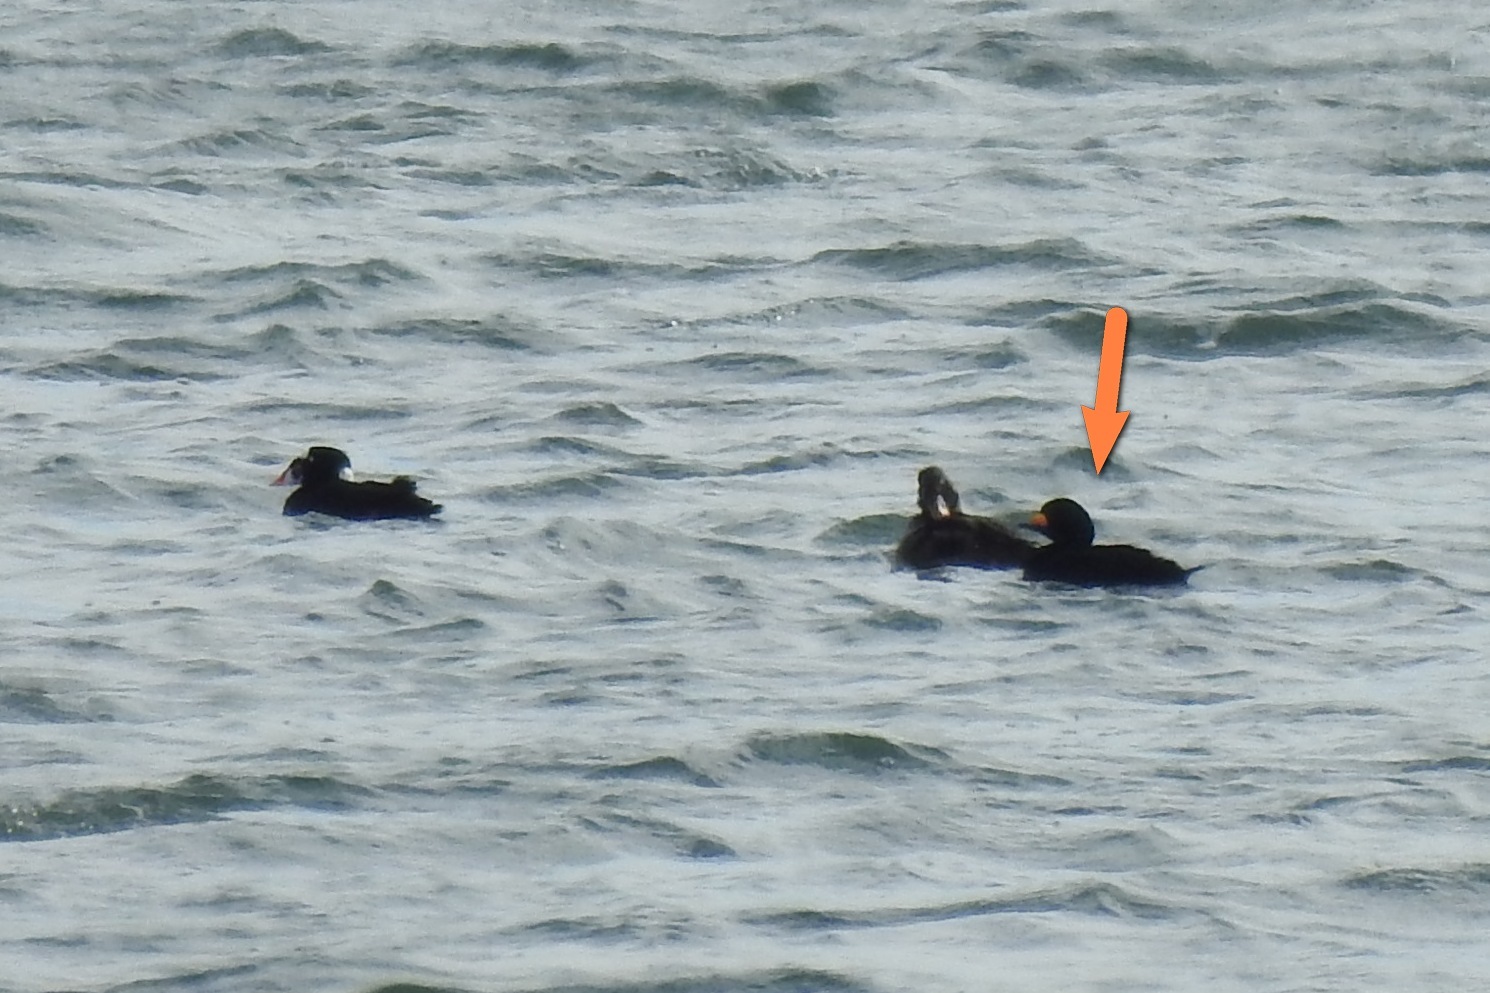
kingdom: Animalia
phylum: Chordata
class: Aves
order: Anseriformes
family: Anatidae
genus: Melanitta
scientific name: Melanitta americana
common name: Black scoter
